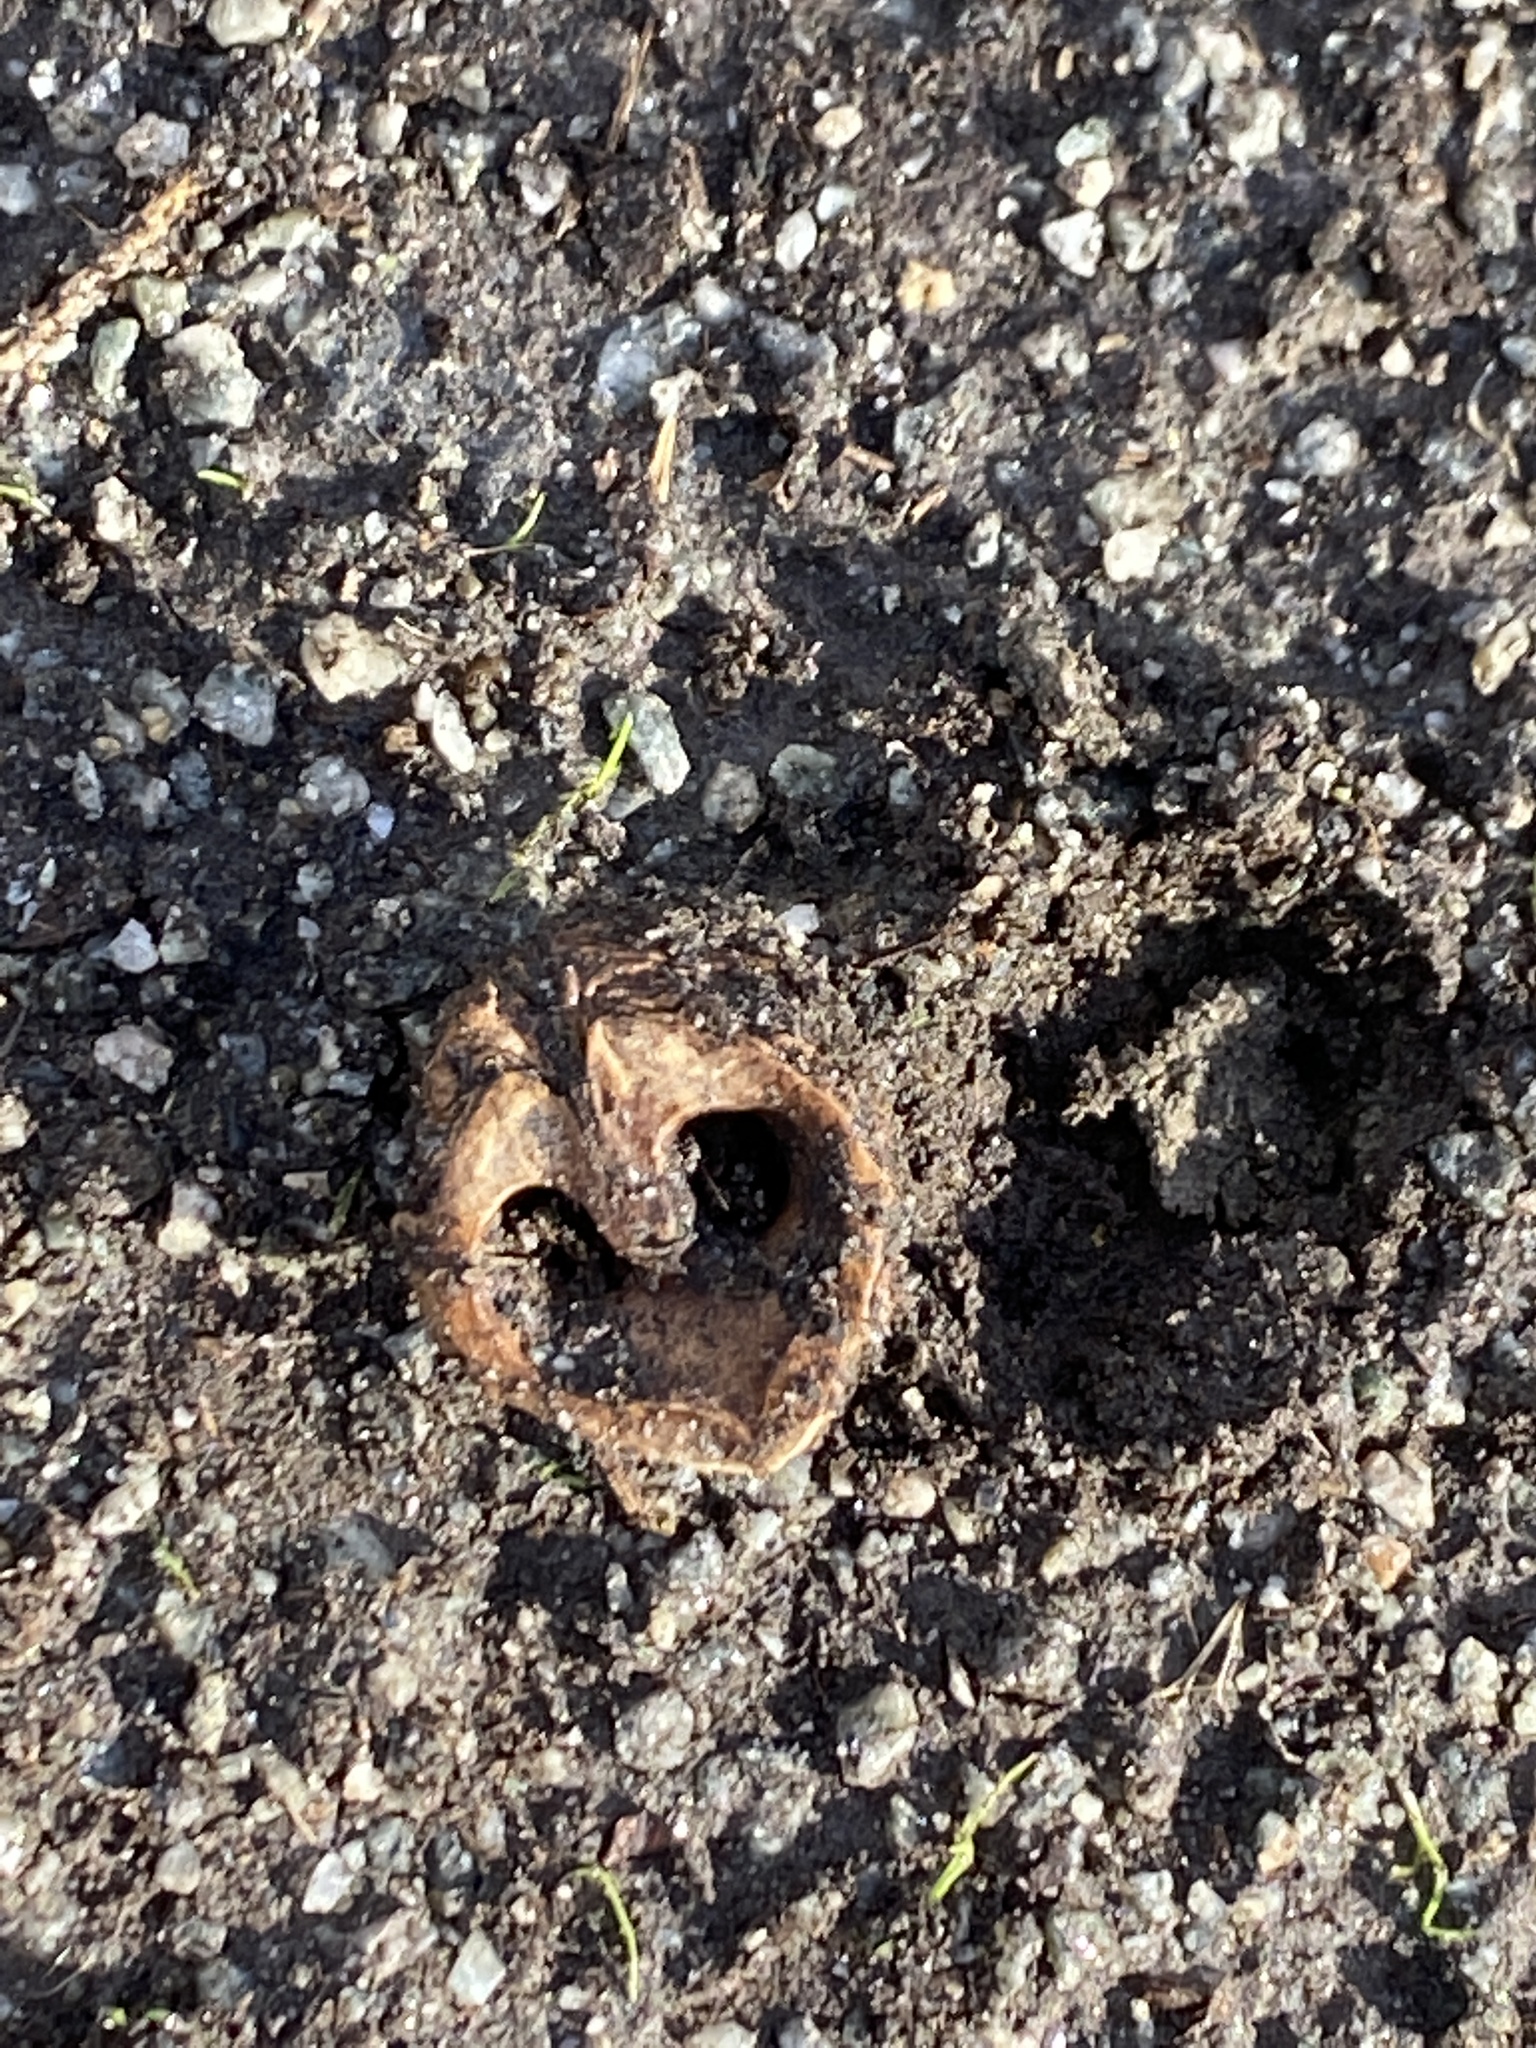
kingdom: Plantae
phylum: Tracheophyta
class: Magnoliopsida
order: Fagales
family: Juglandaceae
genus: Juglans
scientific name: Juglans nigra
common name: Black walnut
